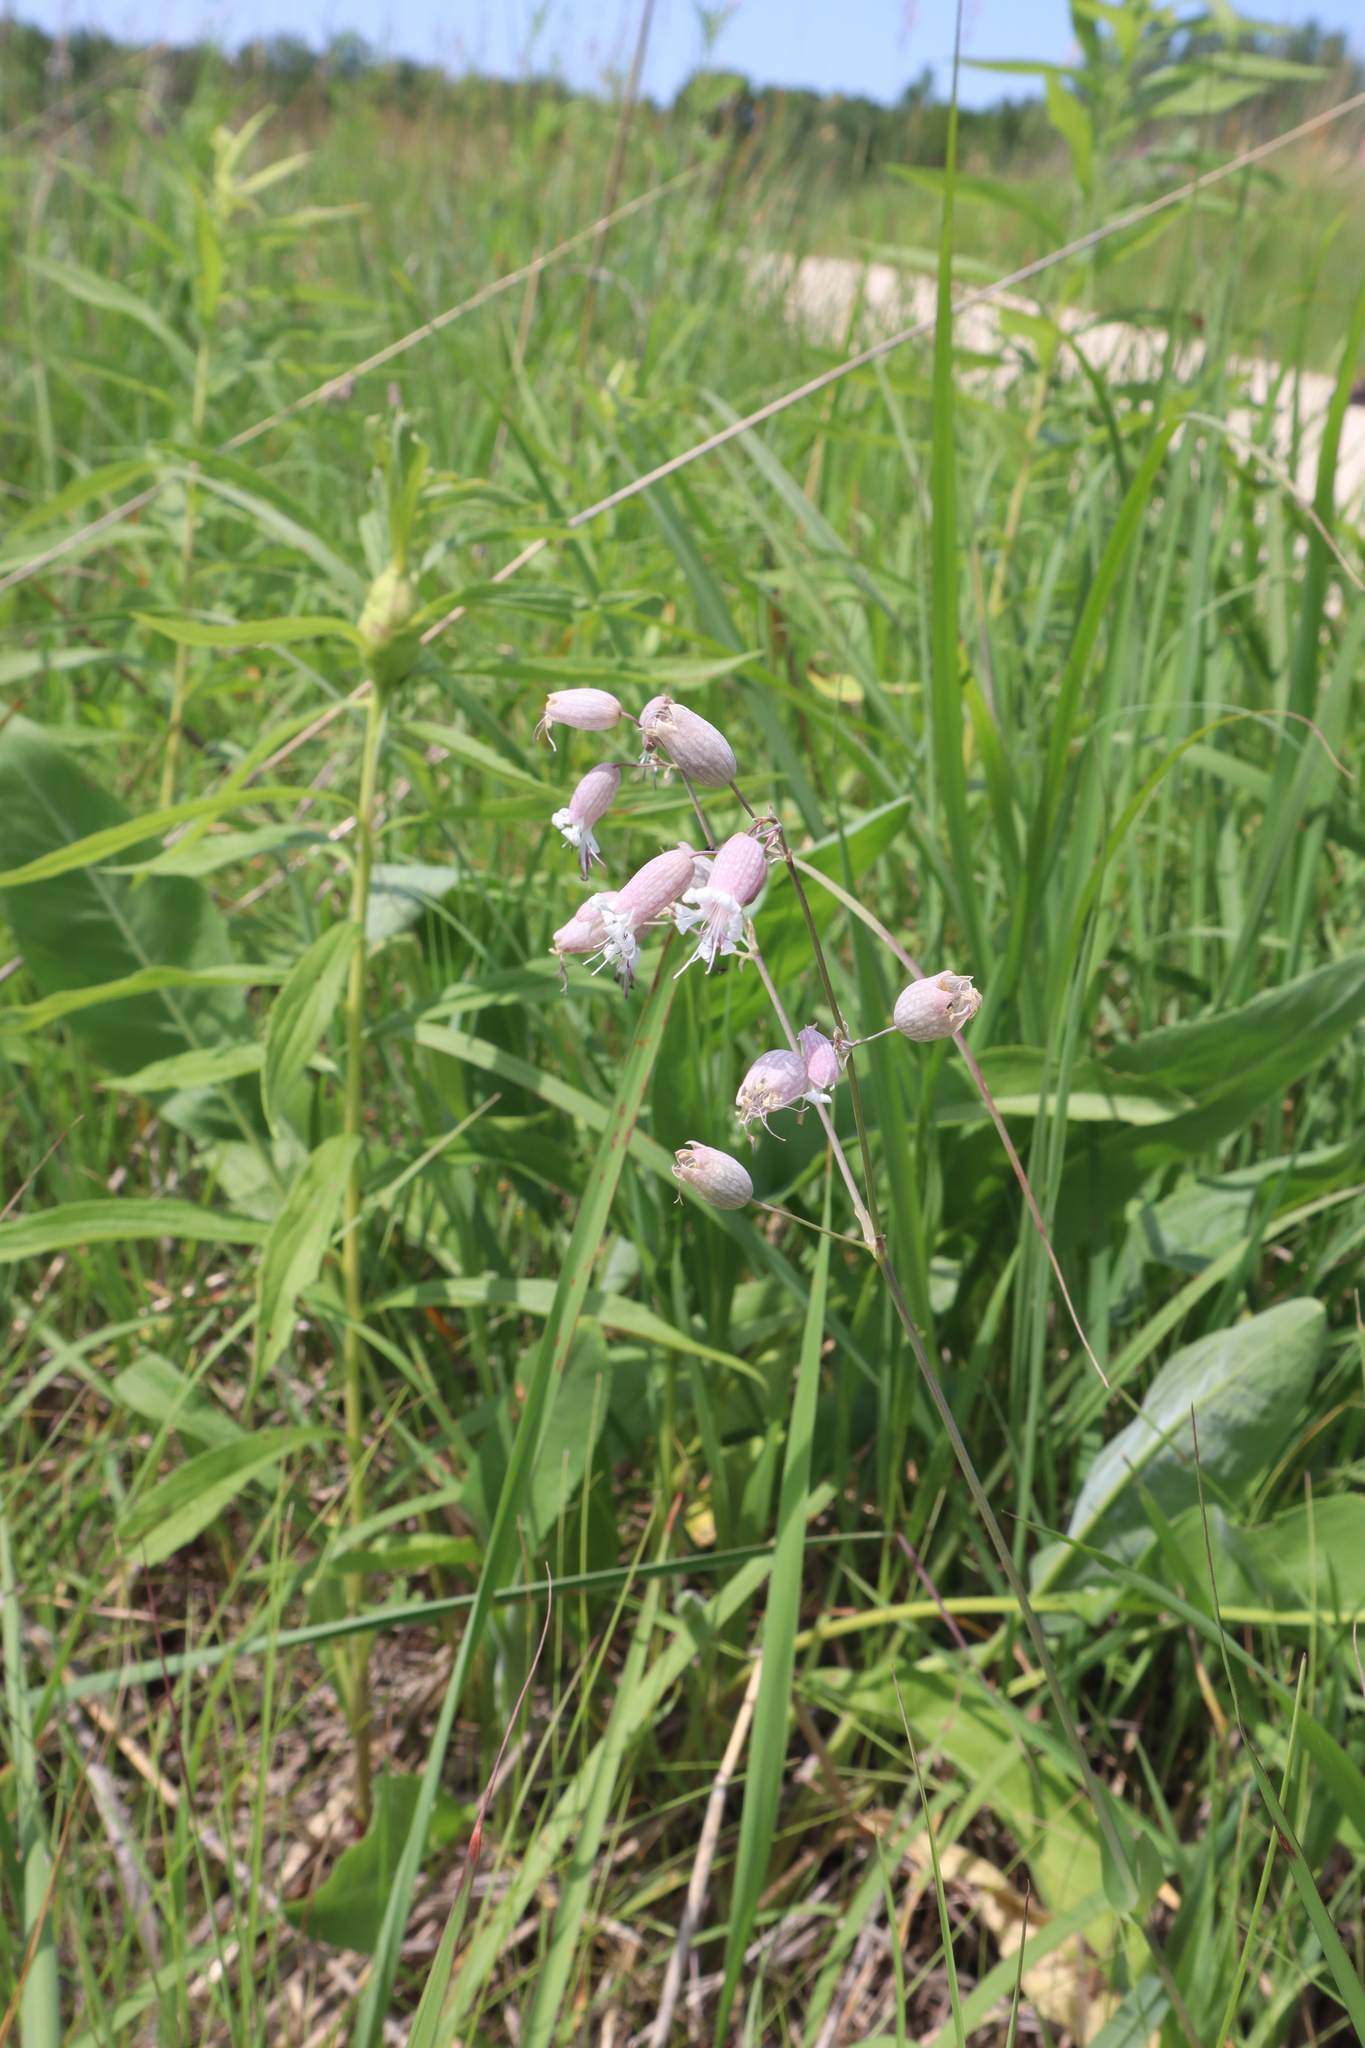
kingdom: Plantae
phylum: Tracheophyta
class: Magnoliopsida
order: Caryophyllales
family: Caryophyllaceae
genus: Silene
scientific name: Silene vulgaris
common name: Bladder campion
